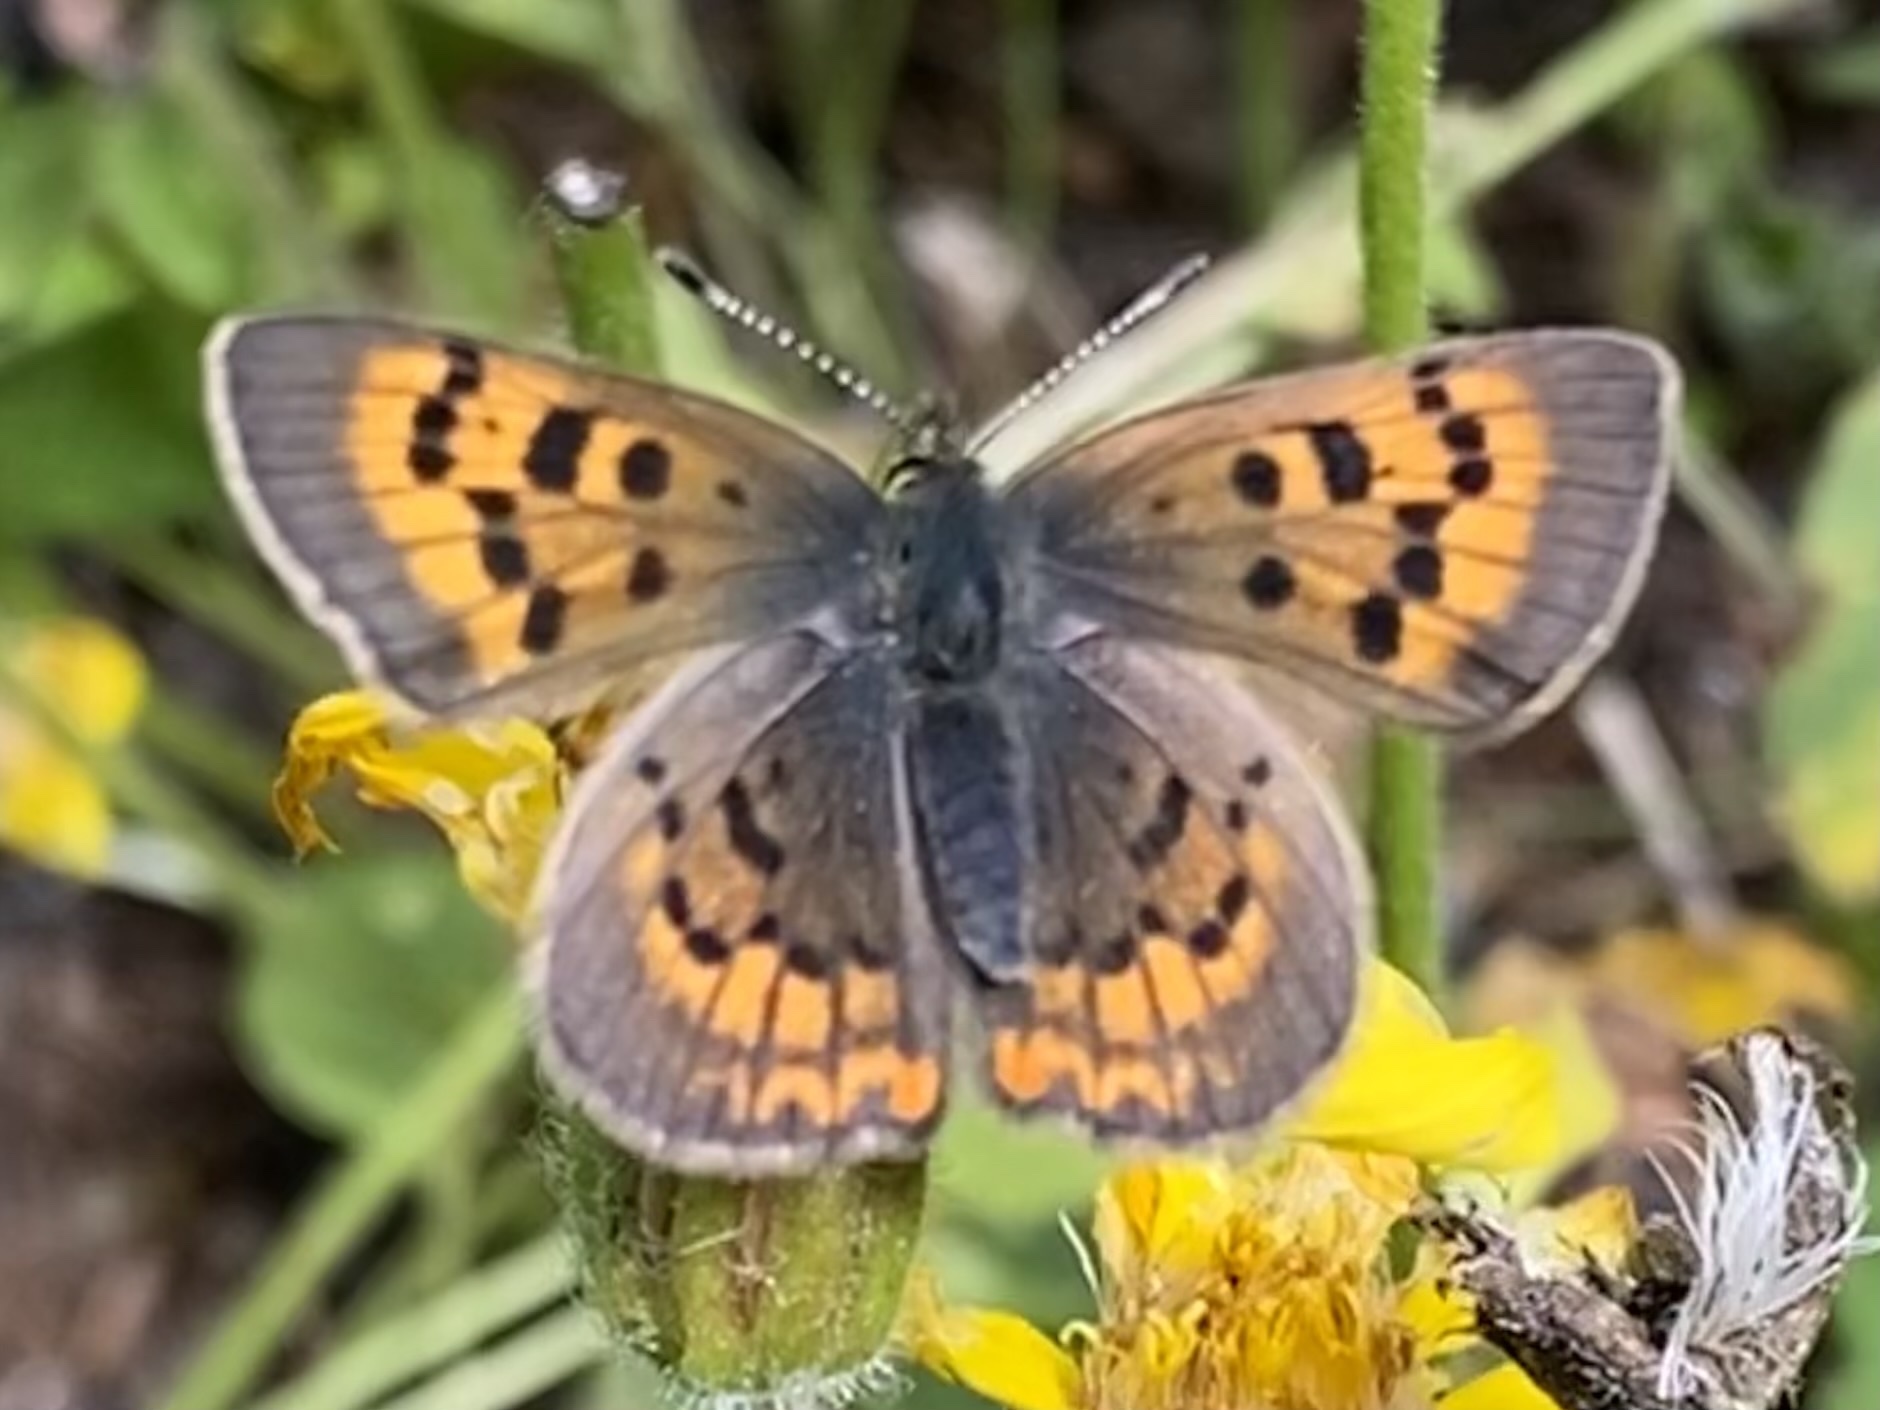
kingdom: Animalia
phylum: Arthropoda
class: Insecta
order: Lepidoptera
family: Lycaenidae
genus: Tharsalea
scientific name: Tharsalea dorcas
